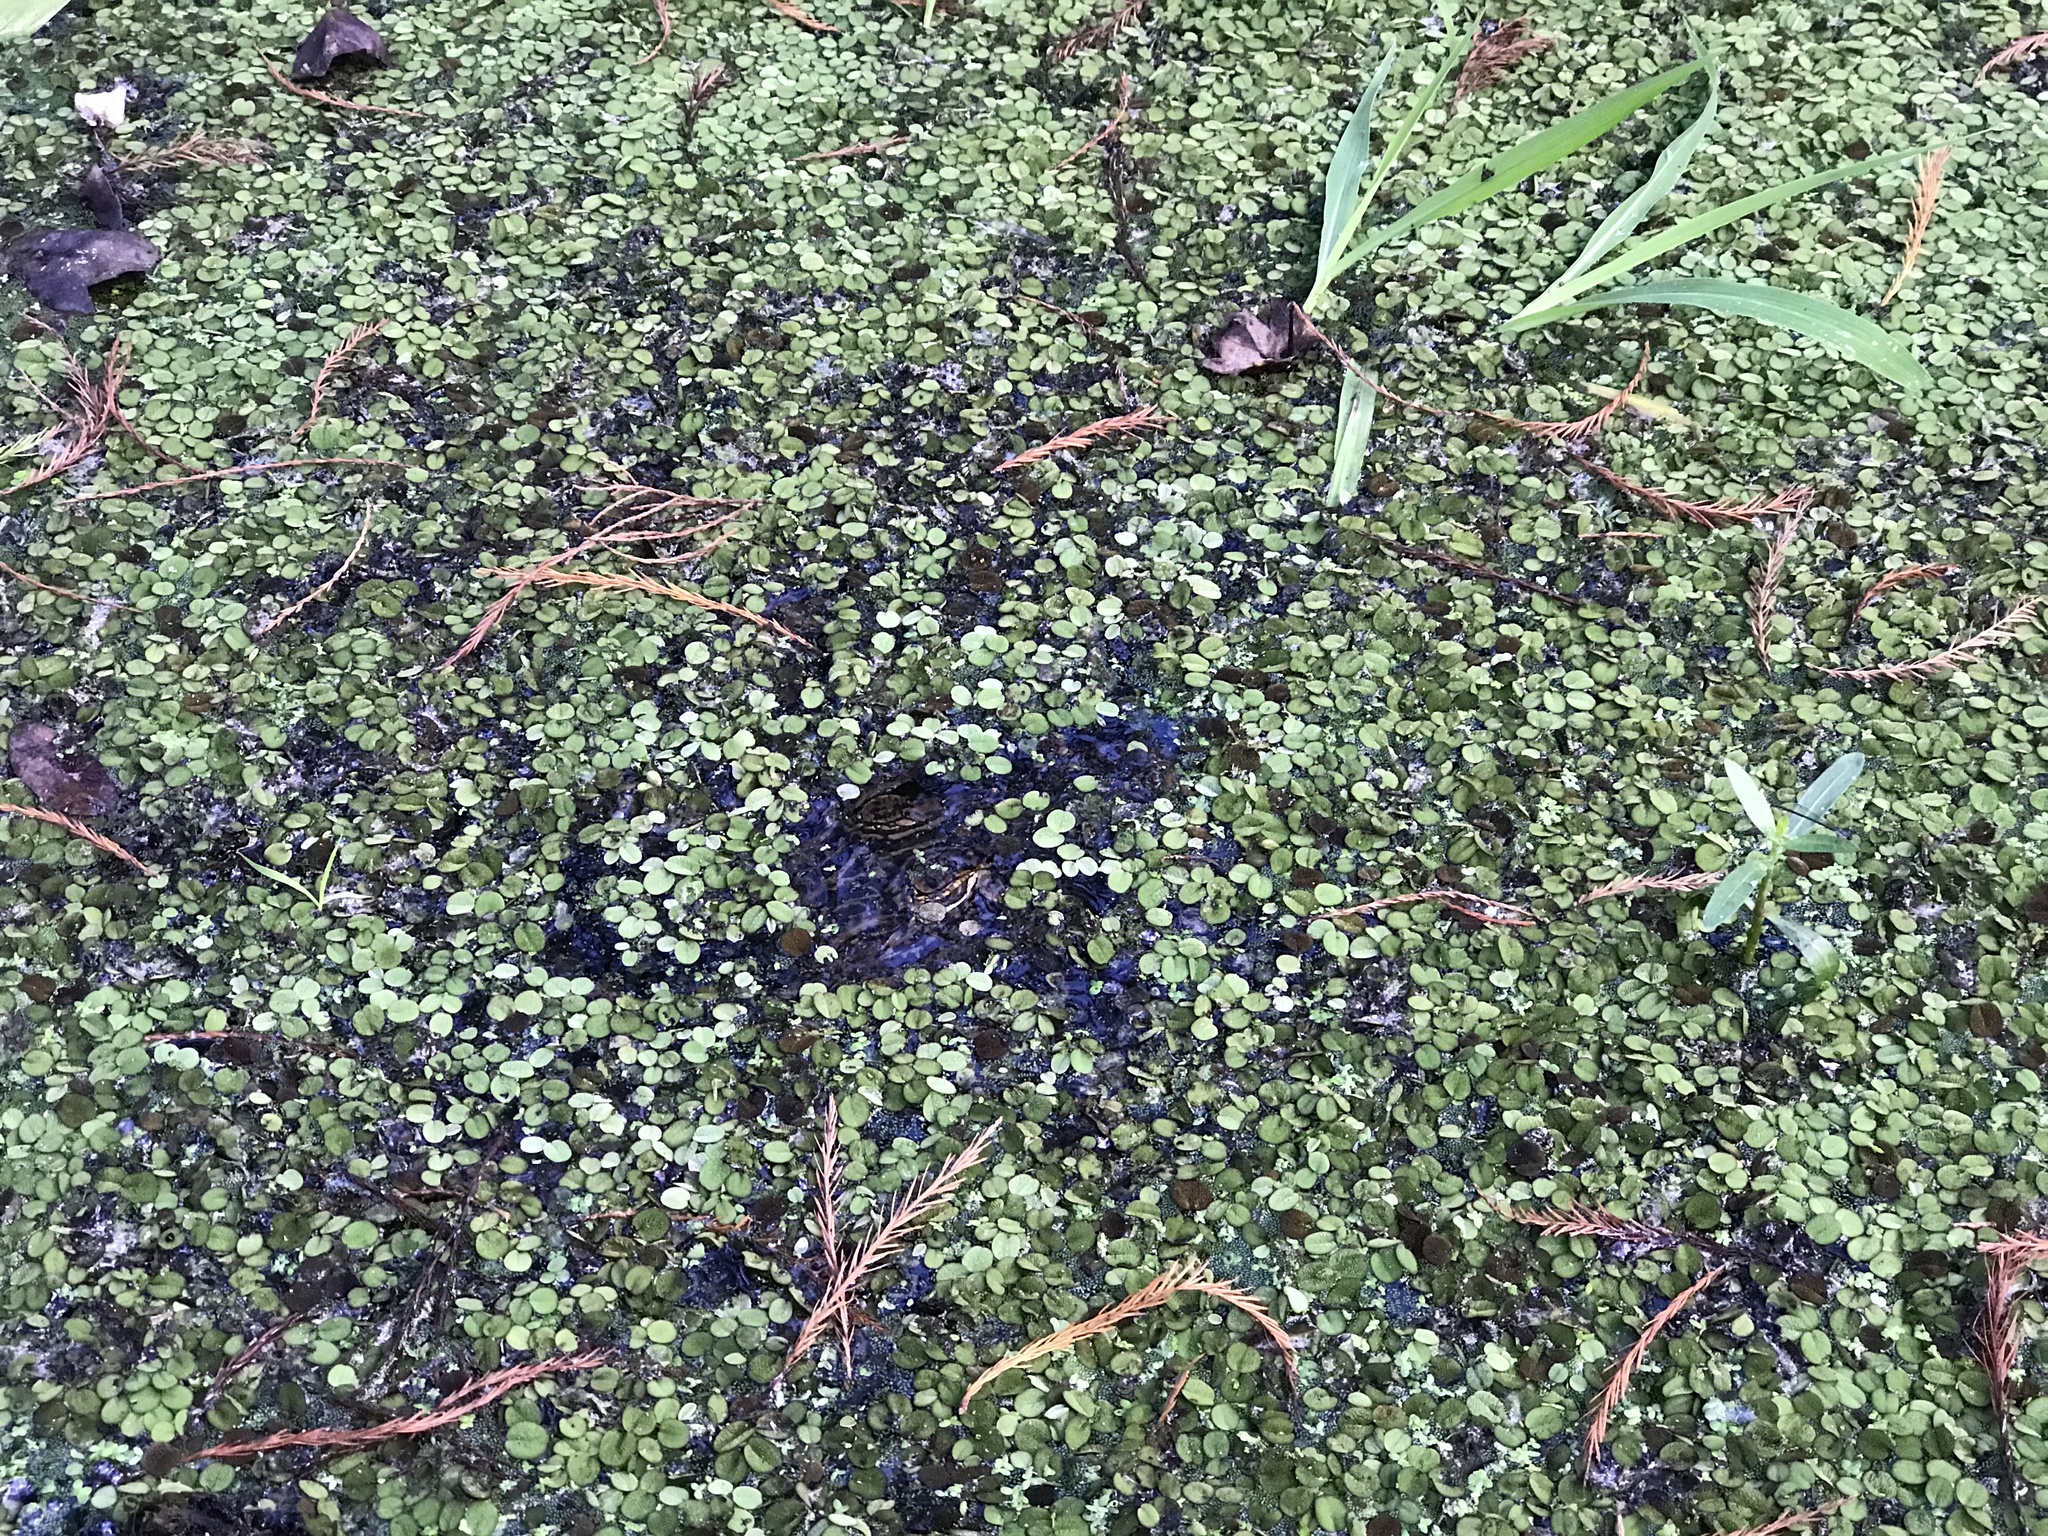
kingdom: Animalia
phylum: Chordata
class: Crocodylia
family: Alligatoridae
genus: Alligator
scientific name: Alligator mississippiensis
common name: American alligator
